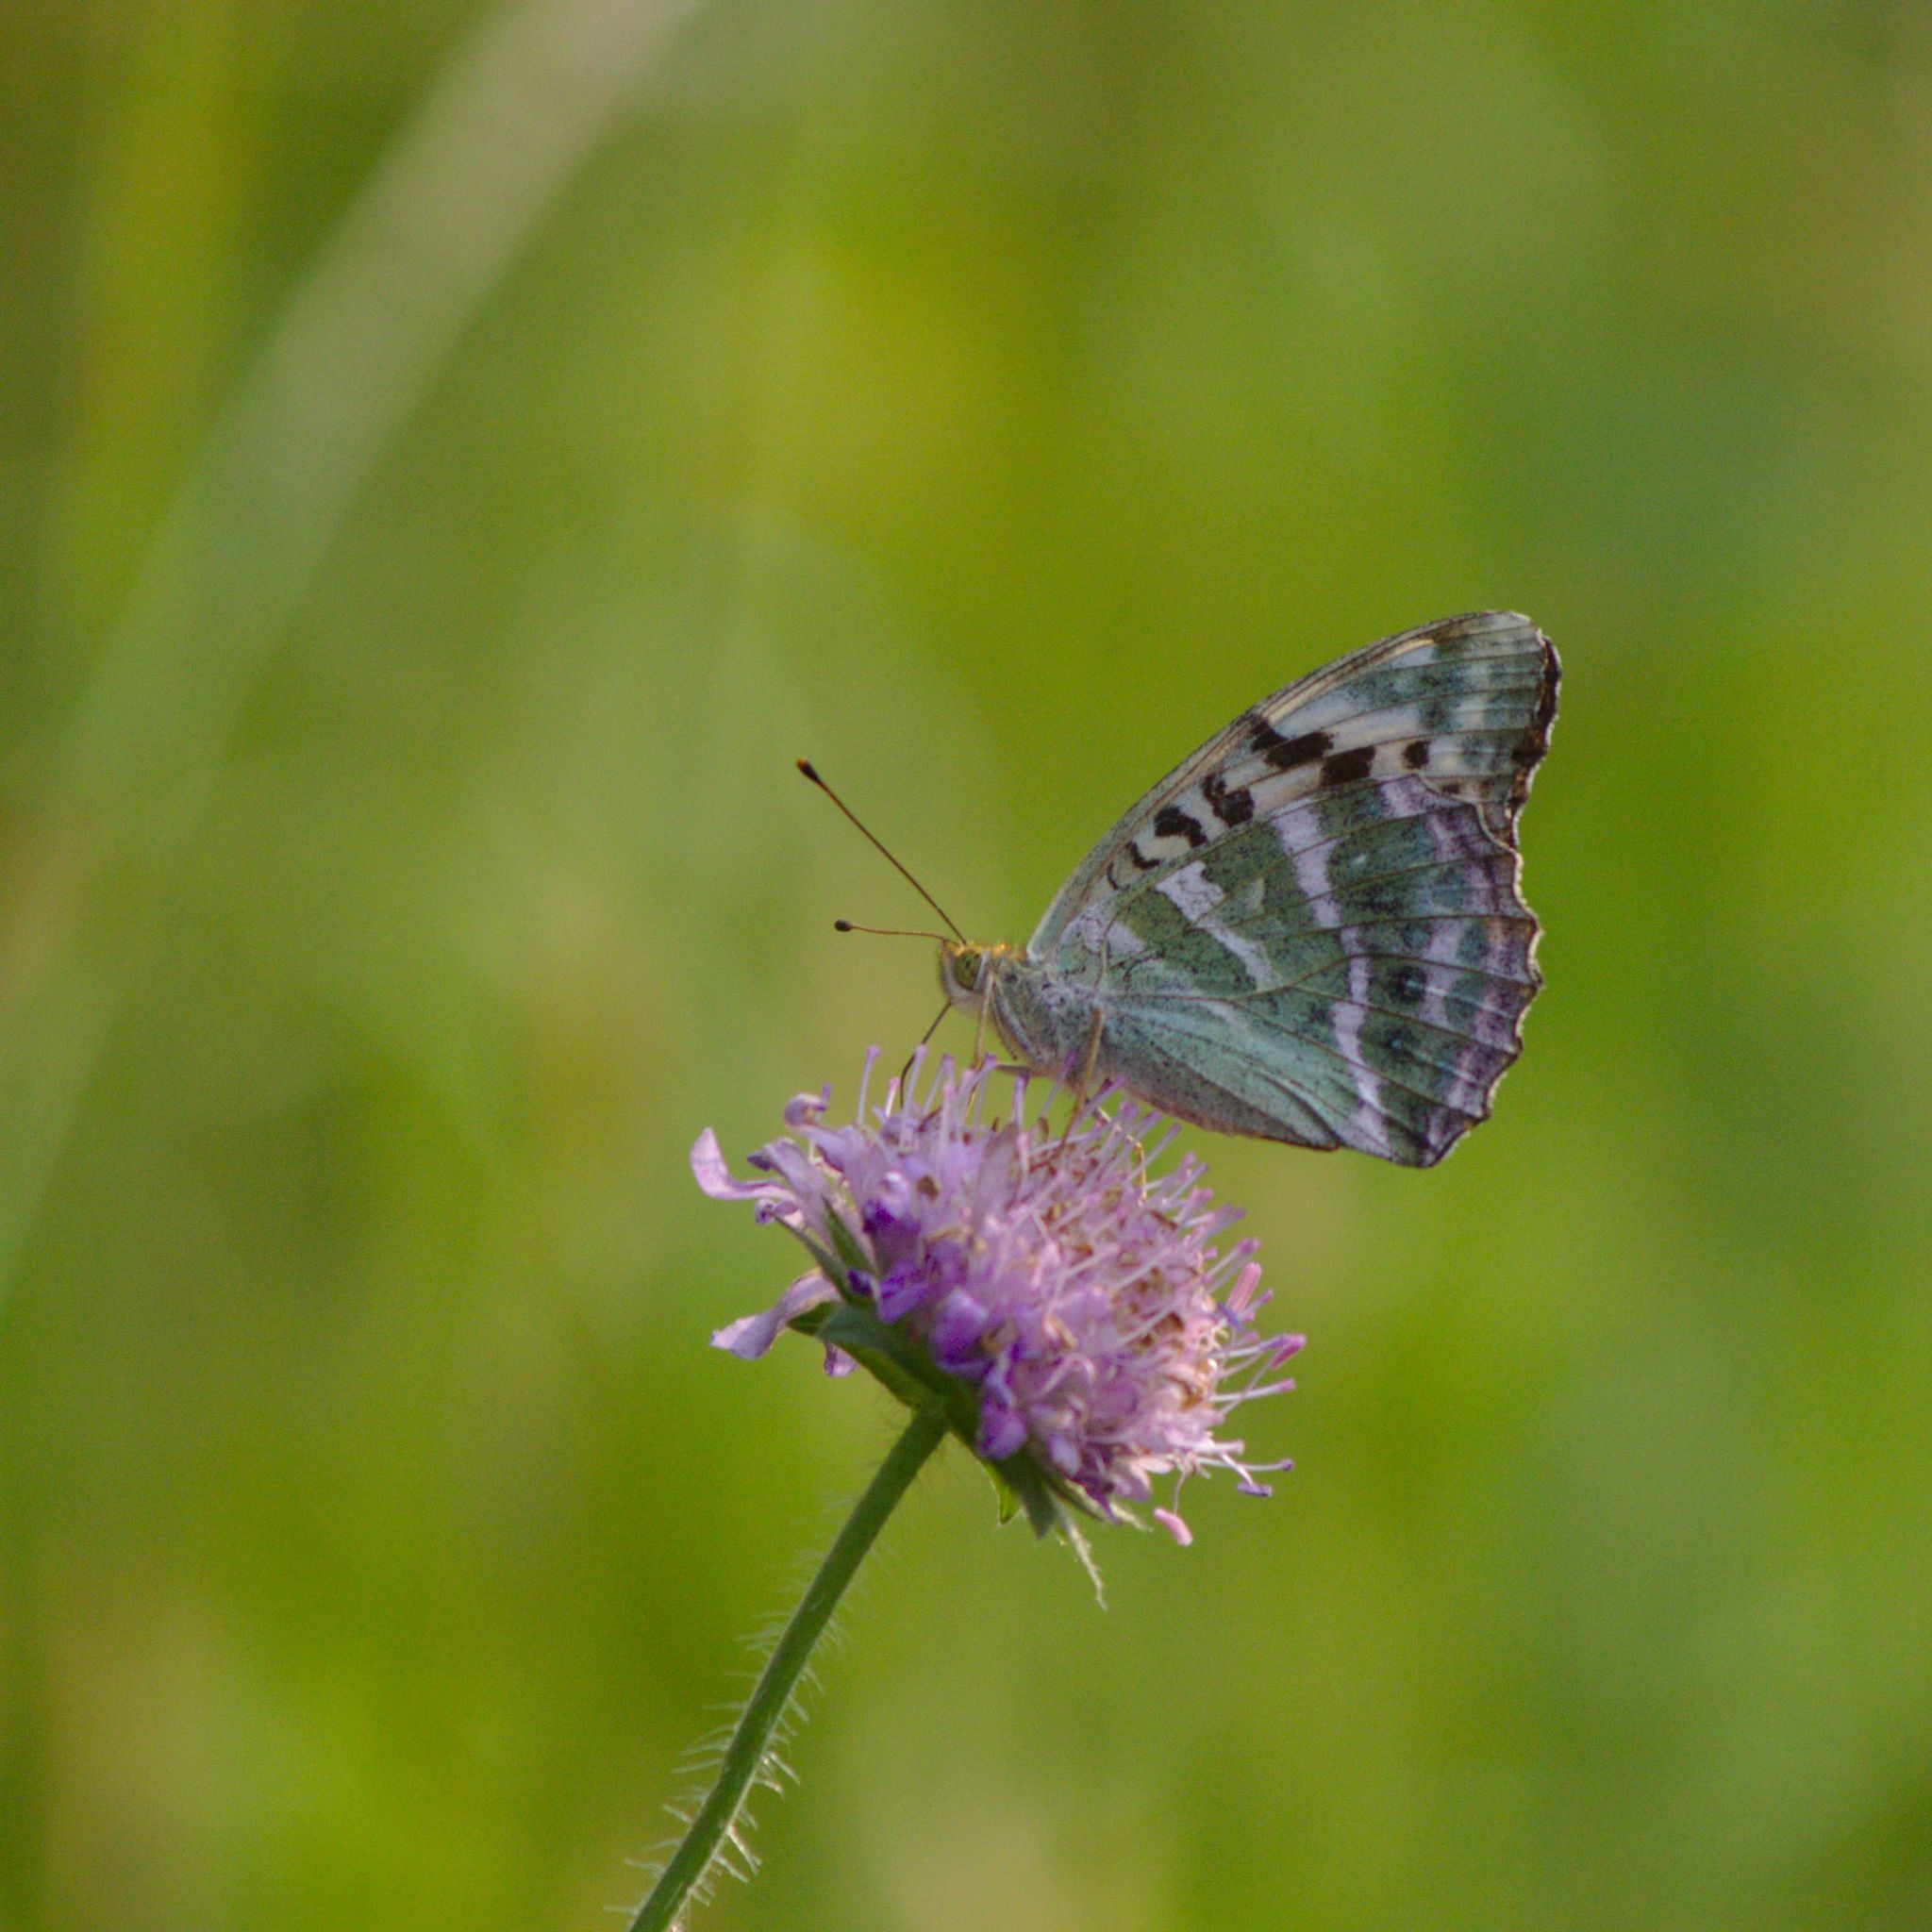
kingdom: Animalia
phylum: Arthropoda
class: Insecta
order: Lepidoptera
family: Nymphalidae
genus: Argynnis
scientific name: Argynnis paphia
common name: Silver-washed fritillary
